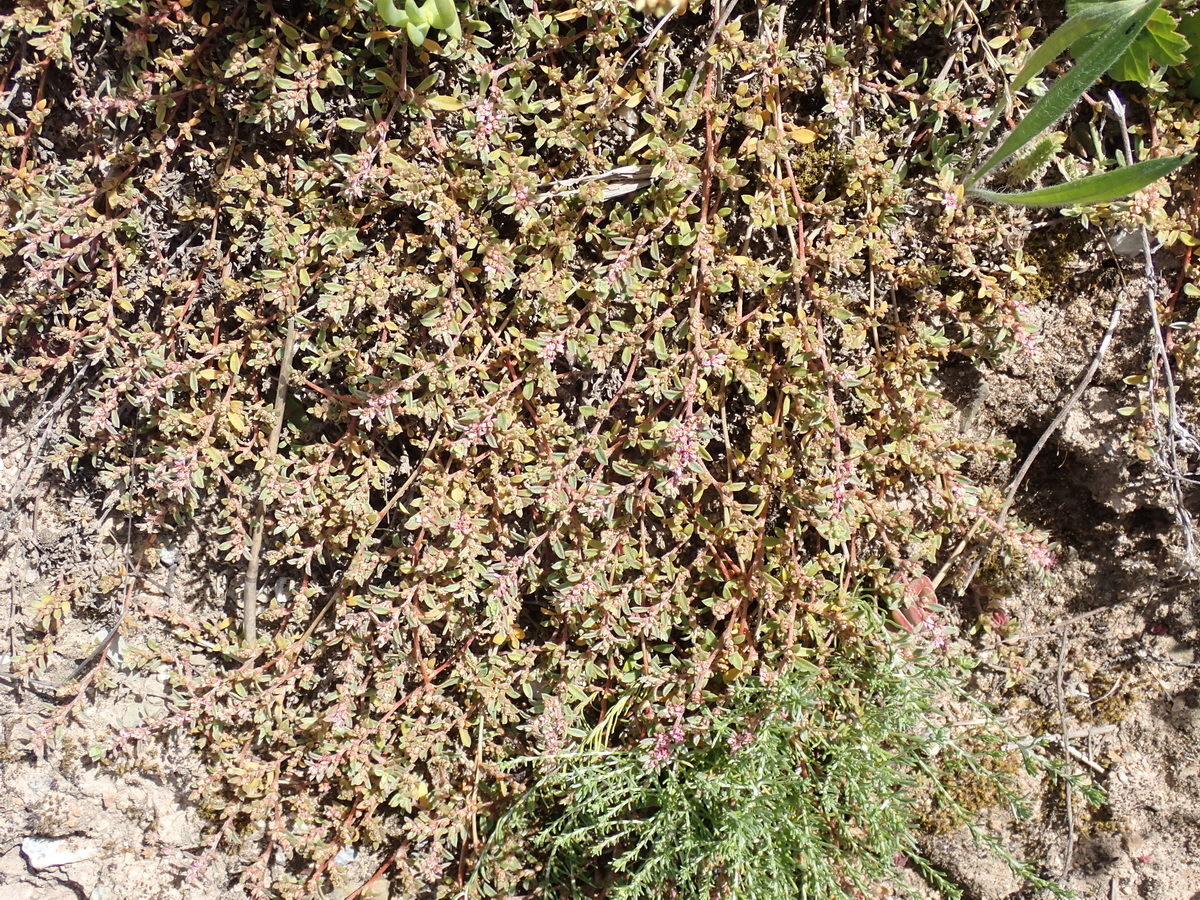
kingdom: Plantae
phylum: Tracheophyta
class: Magnoliopsida
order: Caryophyllales
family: Aizoaceae
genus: Aizoon
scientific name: Aizoon sarcophyllum
